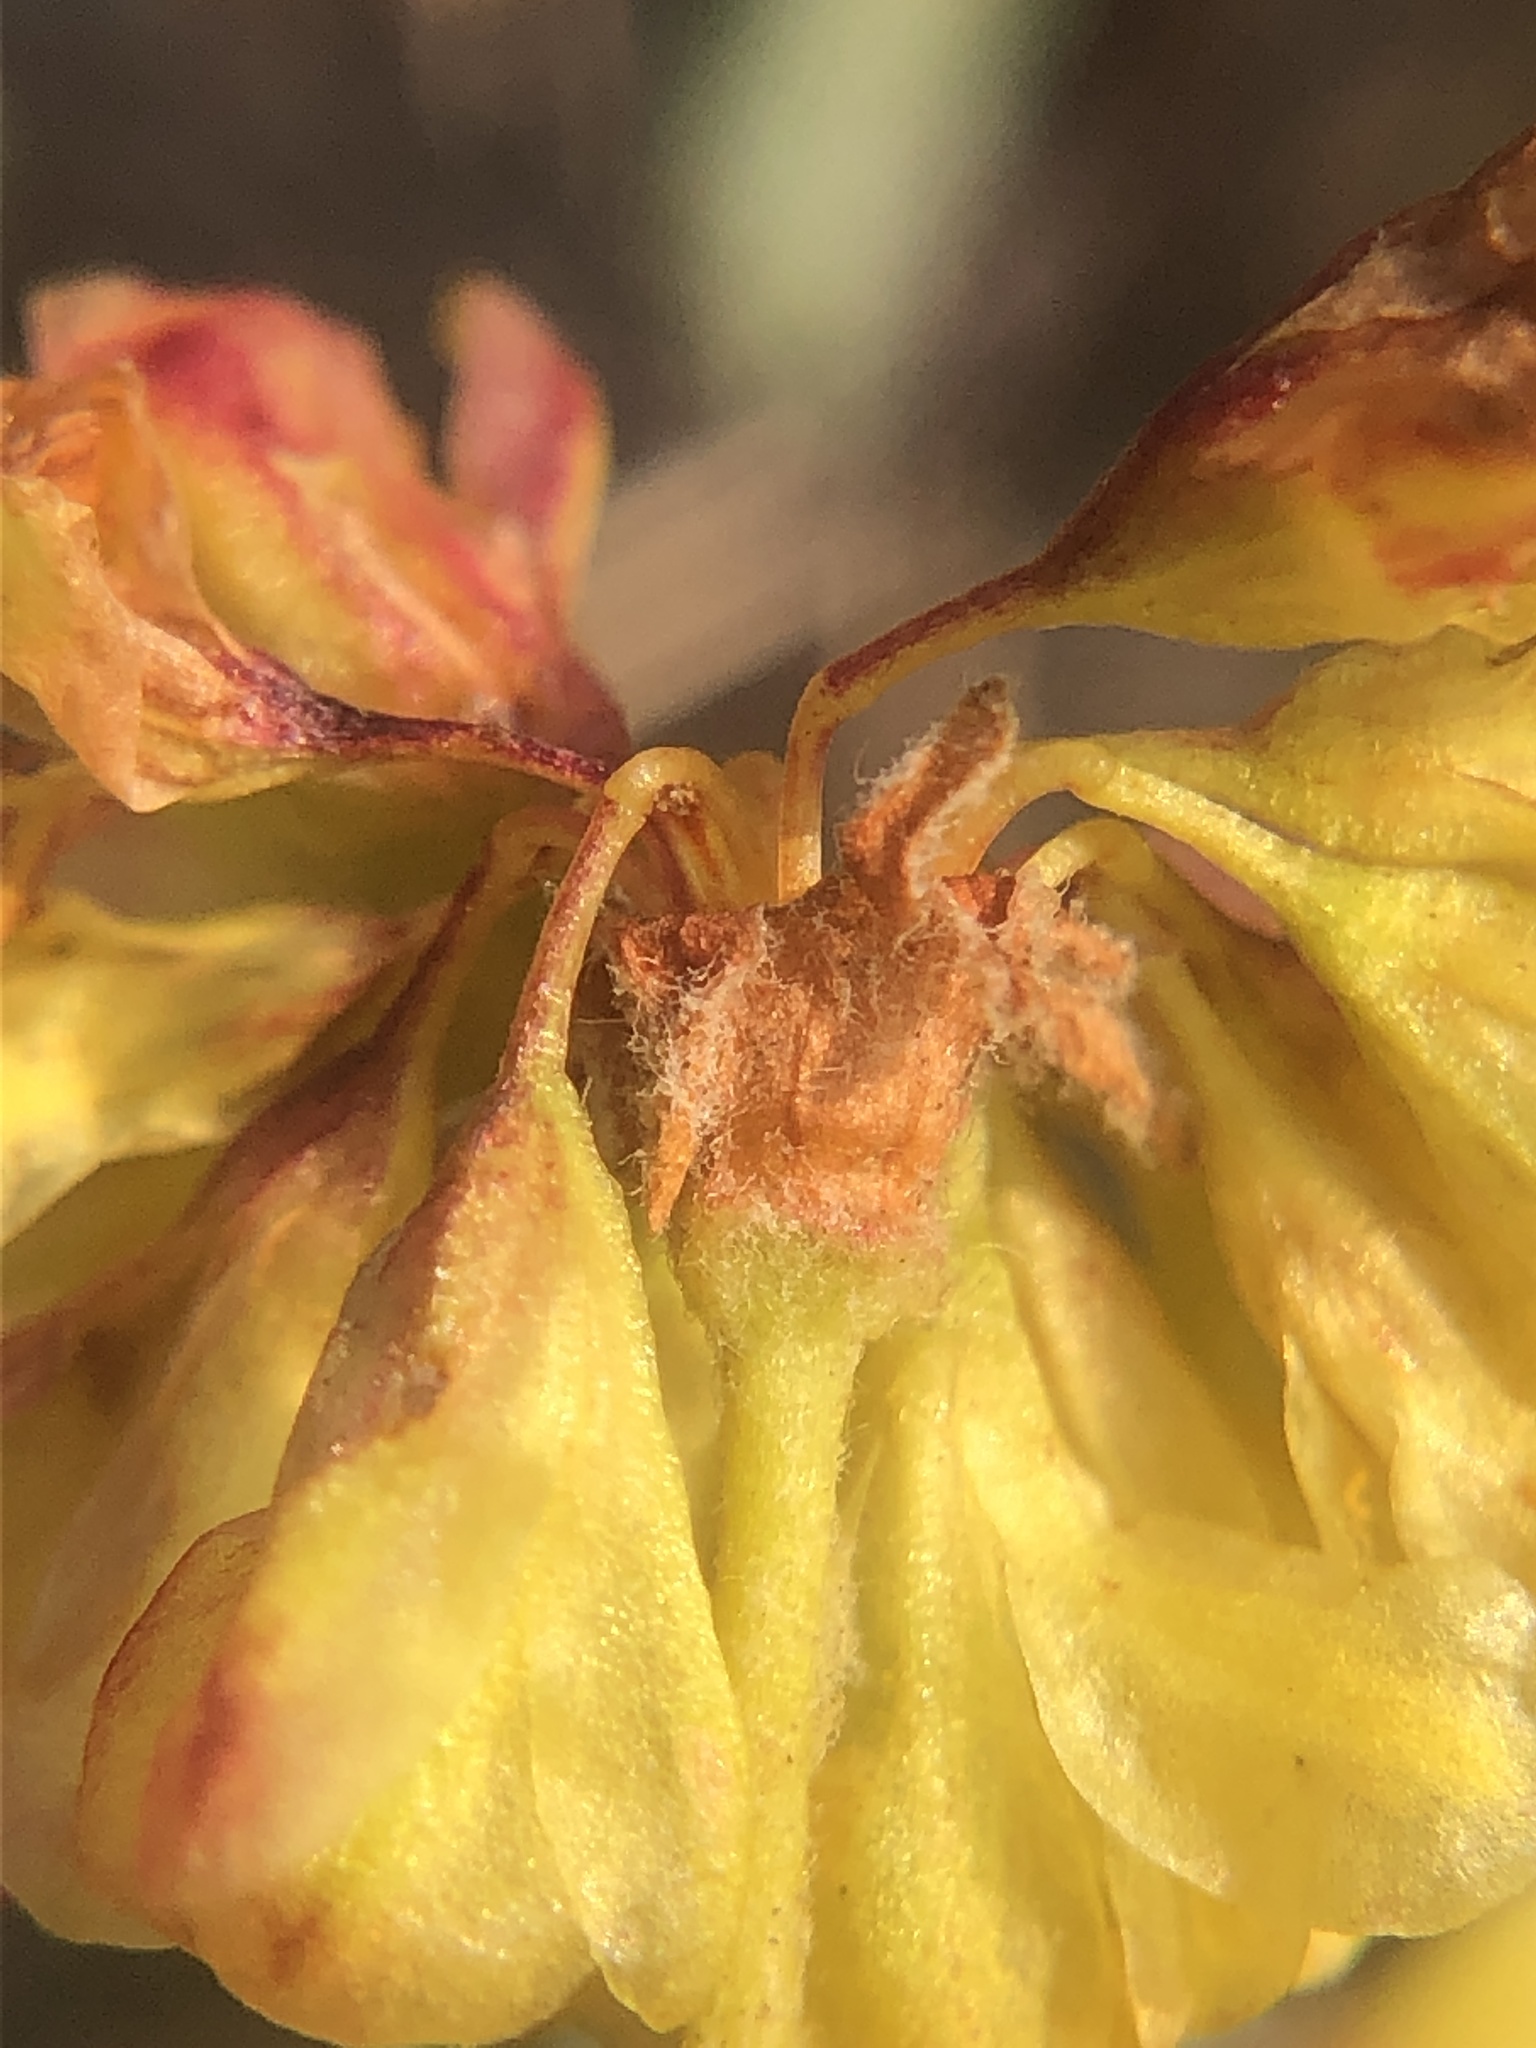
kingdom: Plantae
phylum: Tracheophyta
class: Magnoliopsida
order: Caryophyllales
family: Polygonaceae
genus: Eriogonum
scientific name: Eriogonum umbellatum
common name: Sulfur-buckwheat
